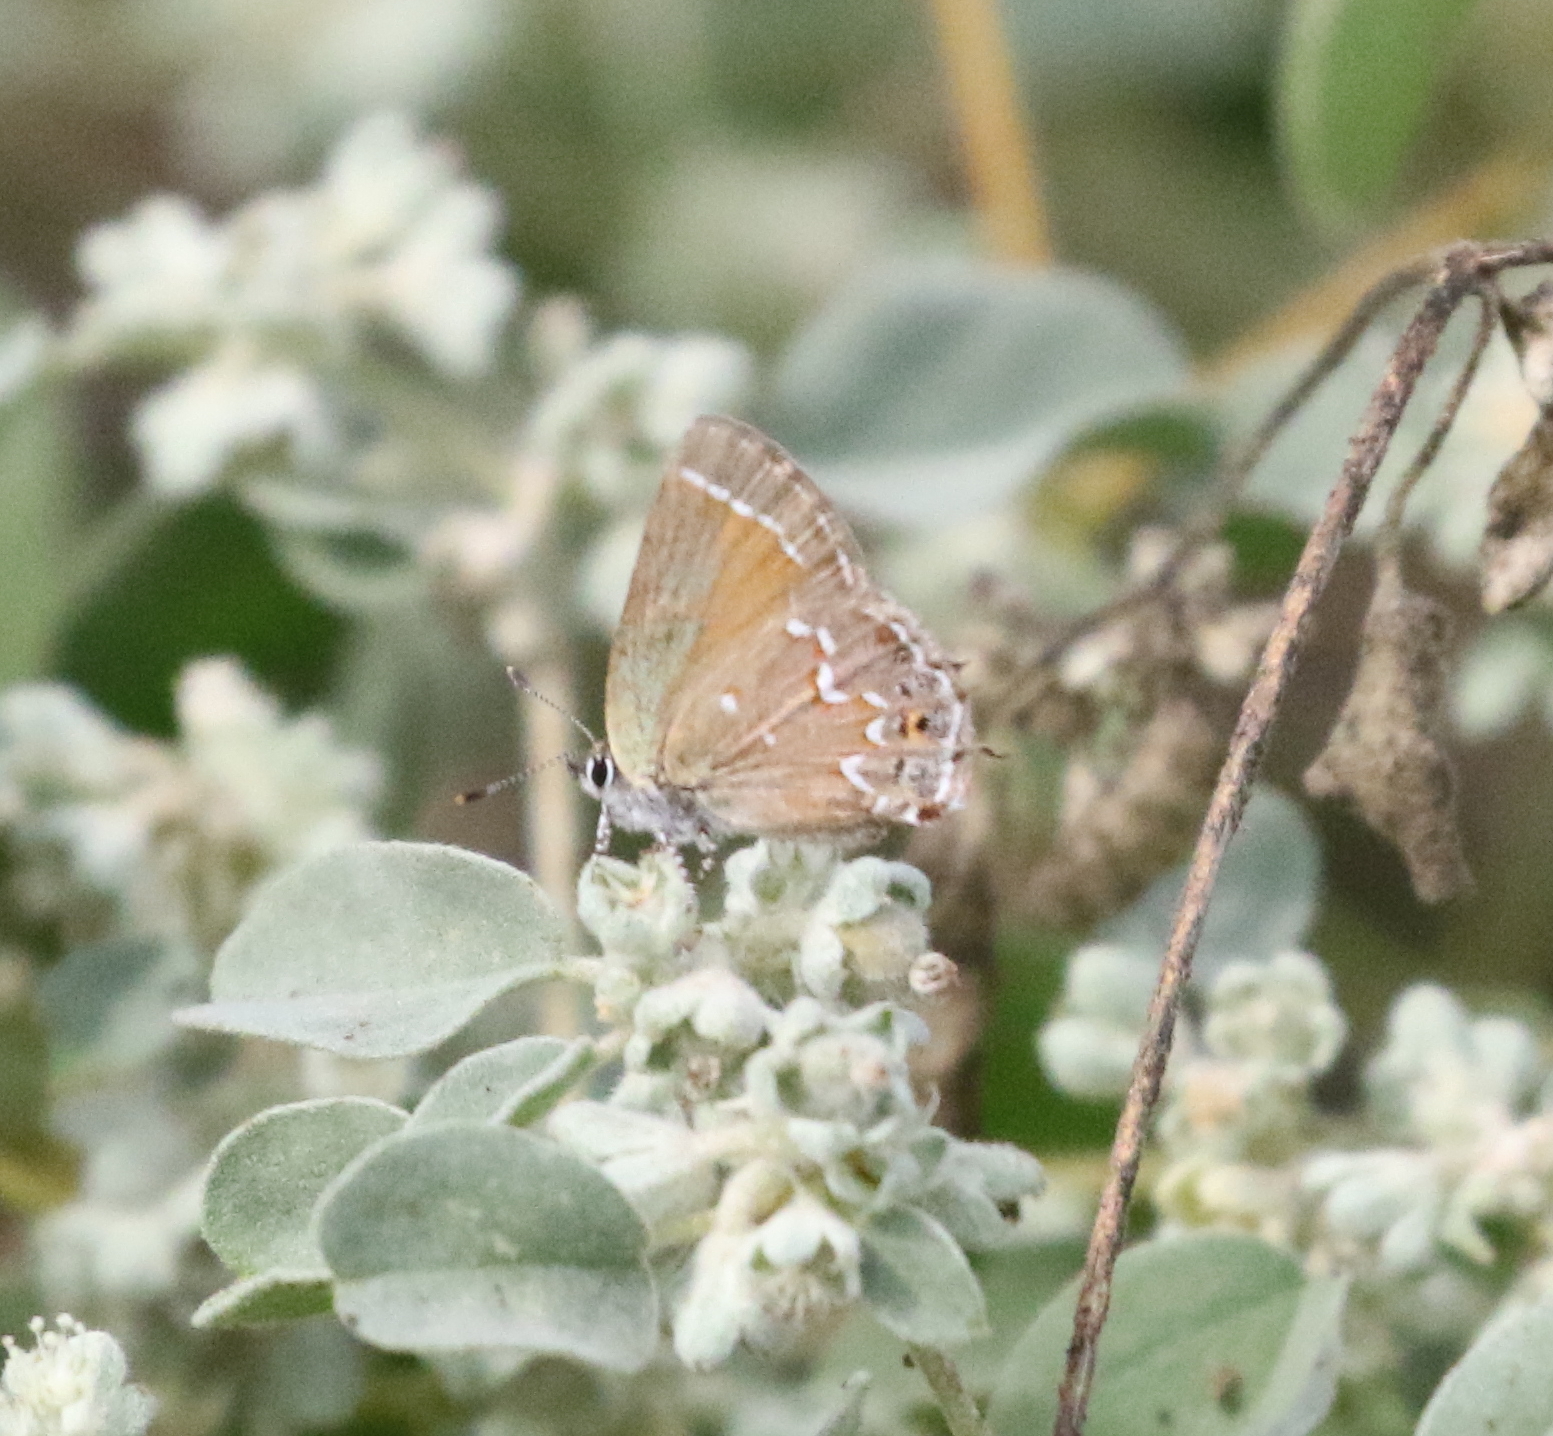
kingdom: Animalia
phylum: Arthropoda
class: Insecta
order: Lepidoptera
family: Lycaenidae
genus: Mitoura
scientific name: Mitoura gryneus
